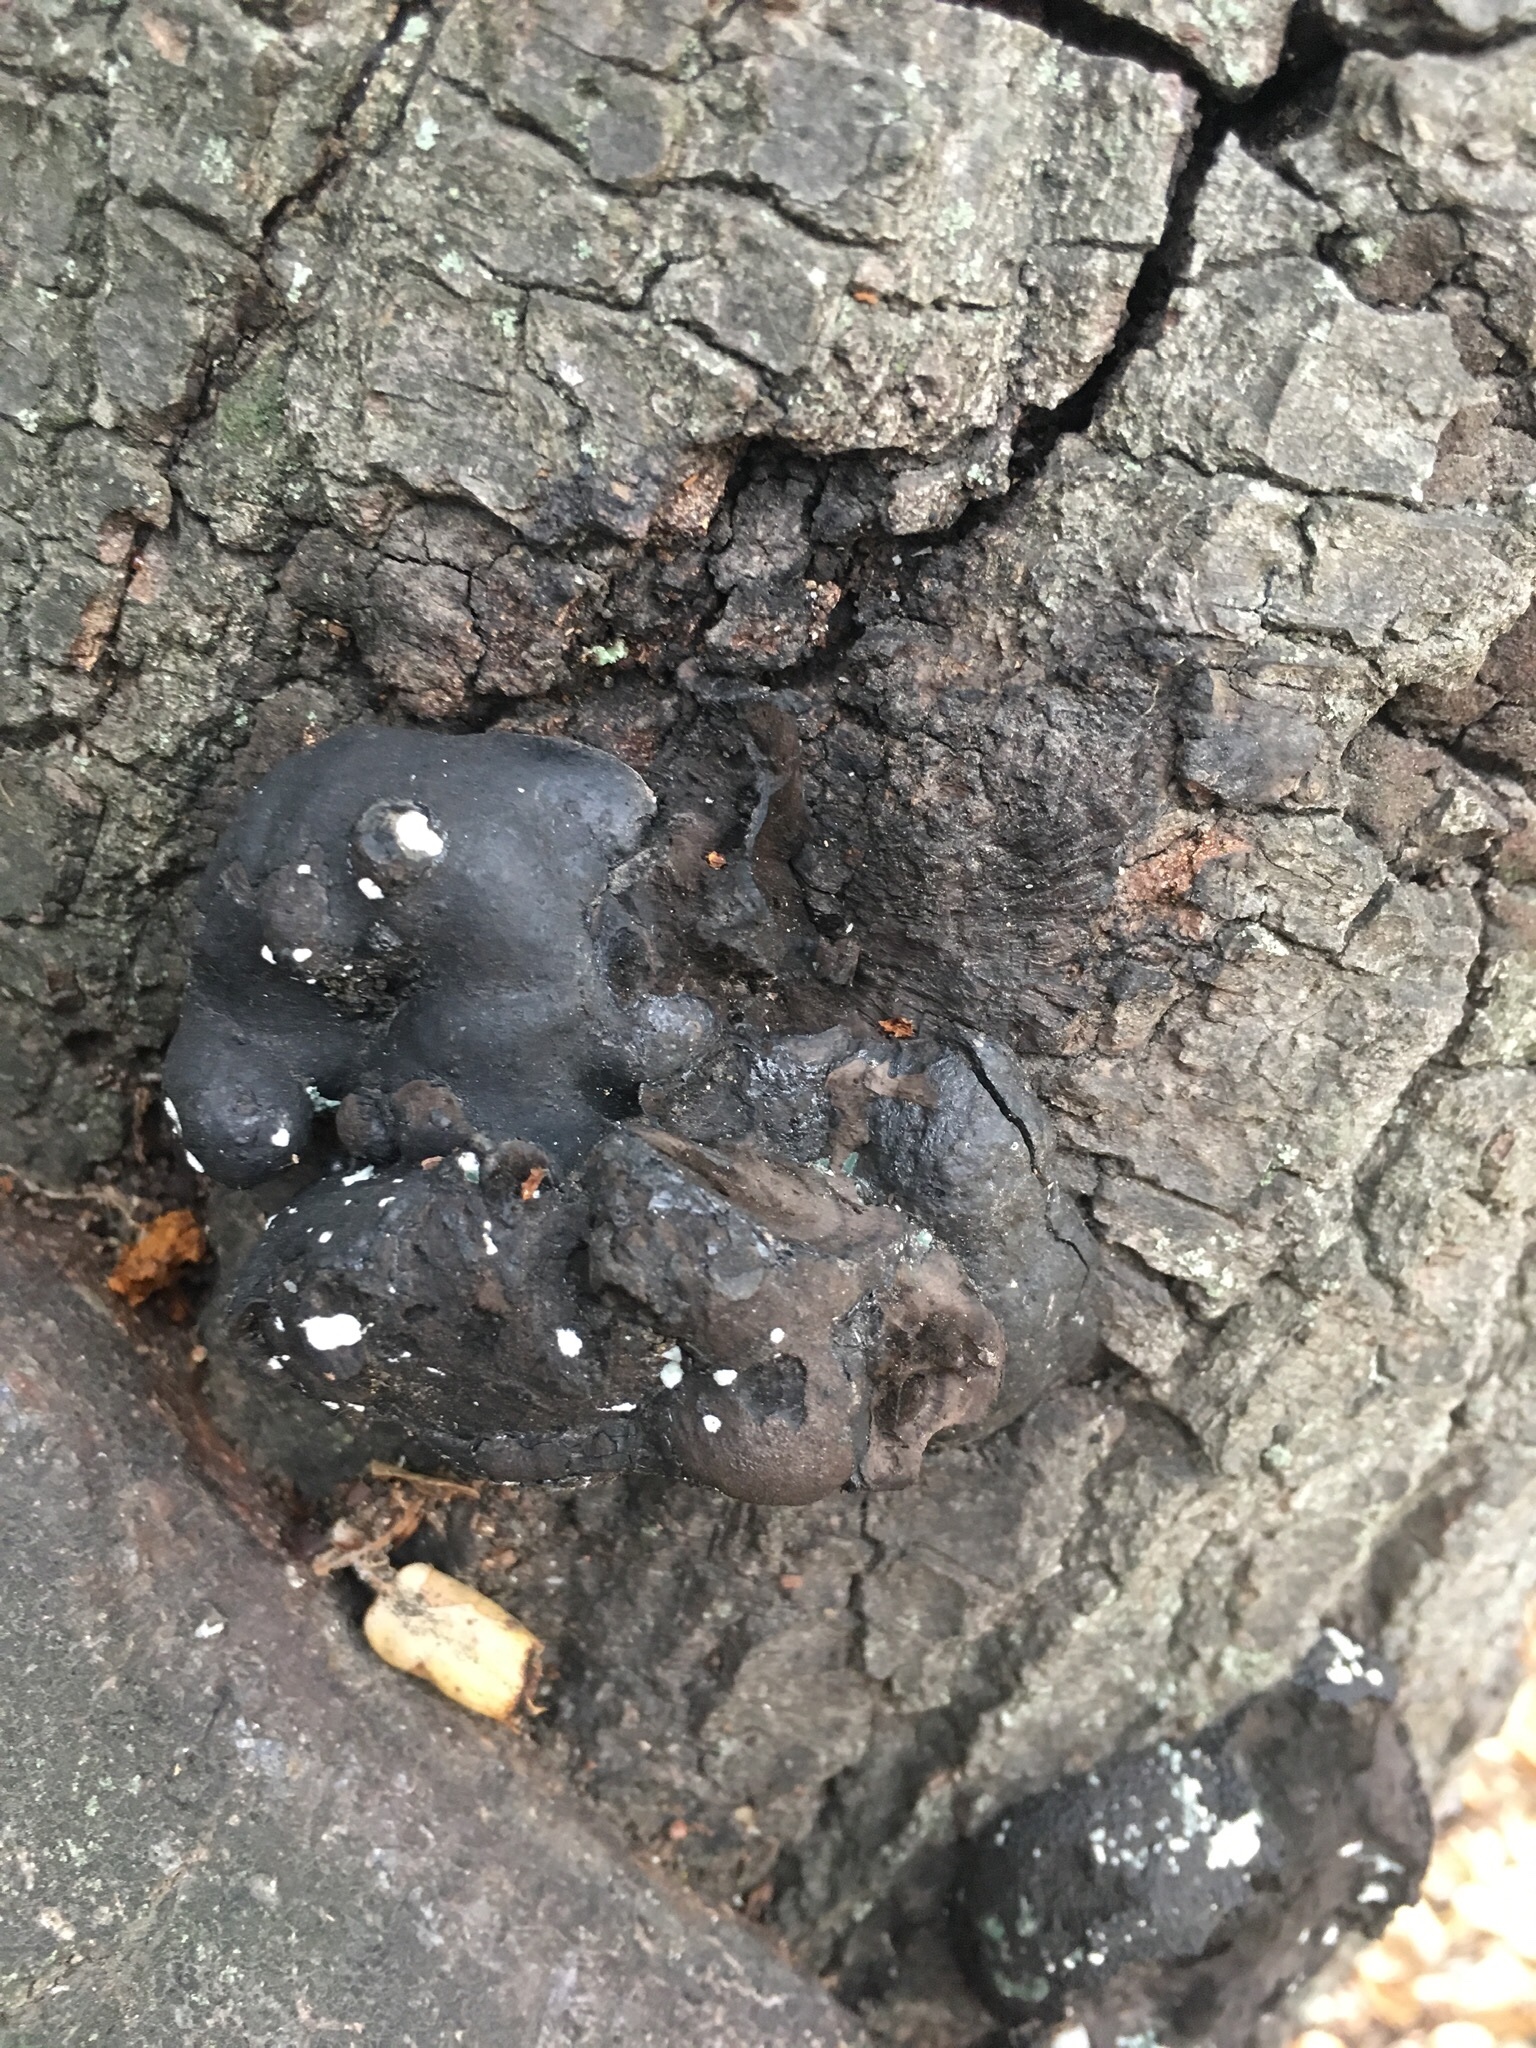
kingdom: Fungi
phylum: Ascomycota
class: Sordariomycetes
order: Xylariales
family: Hypoxylaceae
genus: Annulohypoxylon
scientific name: Annulohypoxylon thouarsianum
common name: Cramp balls
